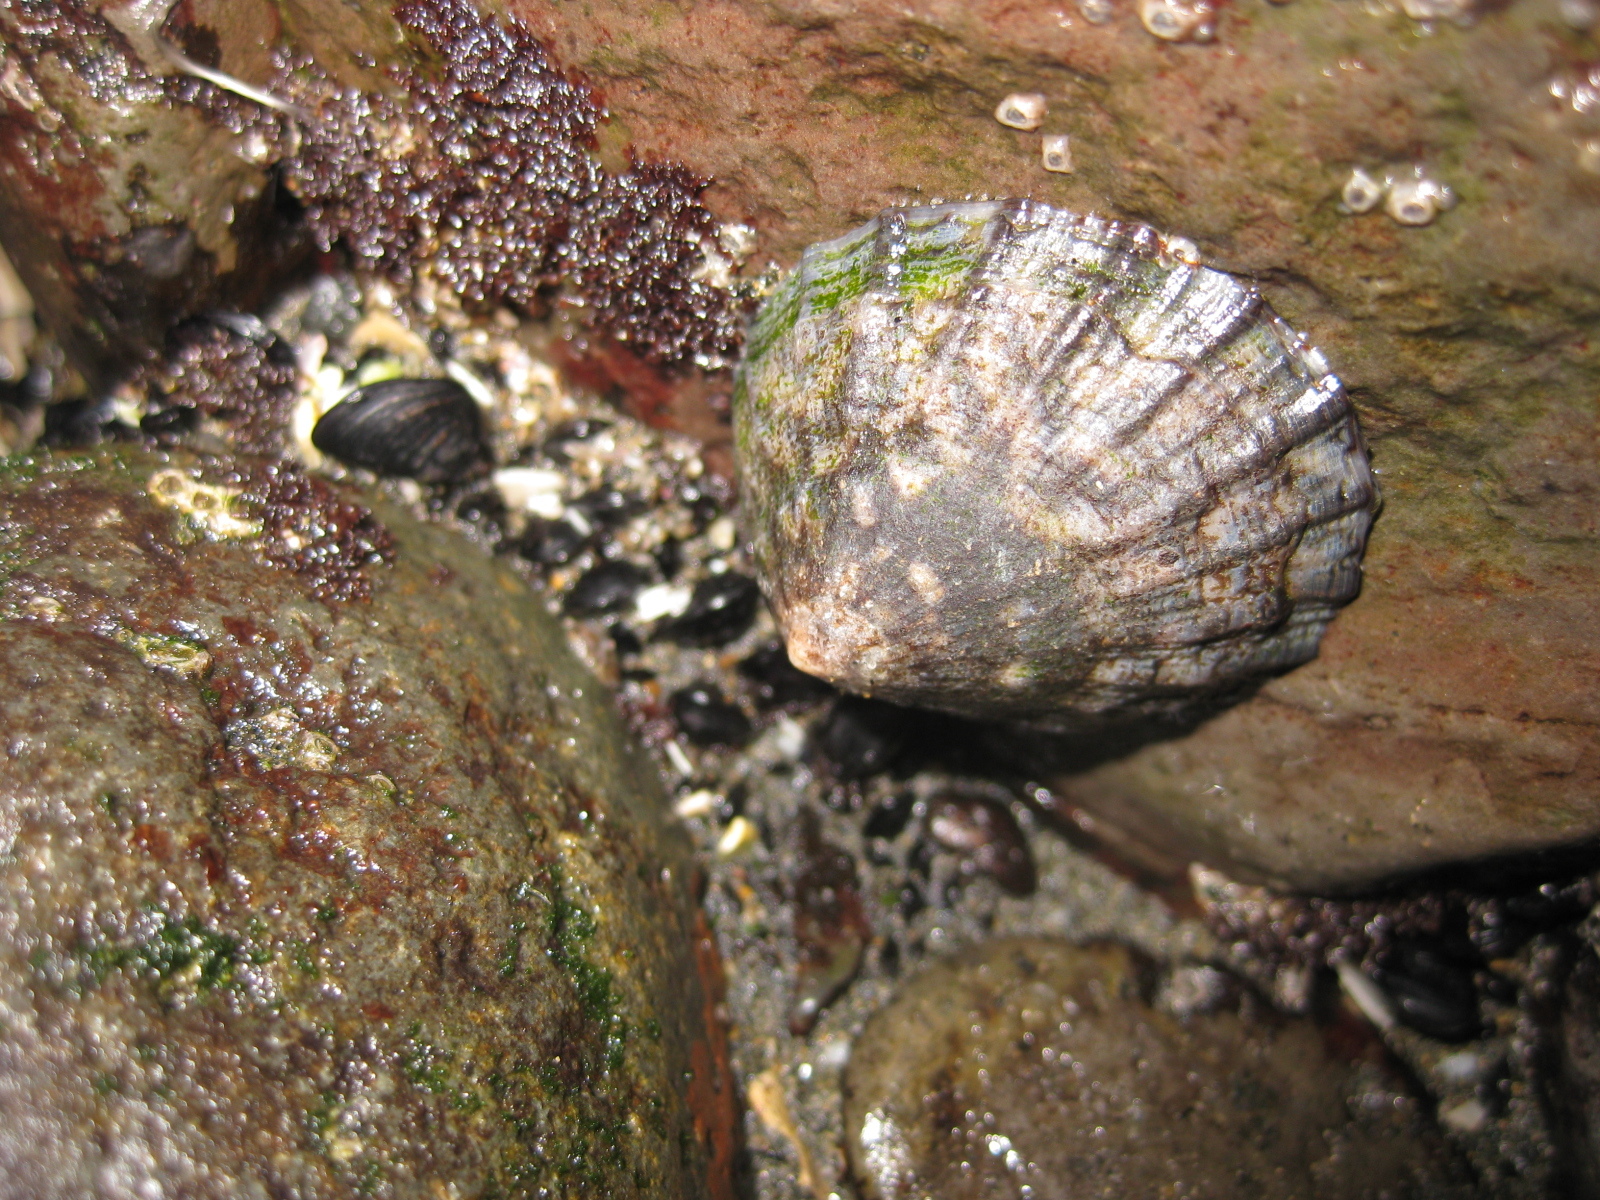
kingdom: Animalia
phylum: Mollusca
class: Gastropoda
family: Nacellidae
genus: Cellana
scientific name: Cellana radians
